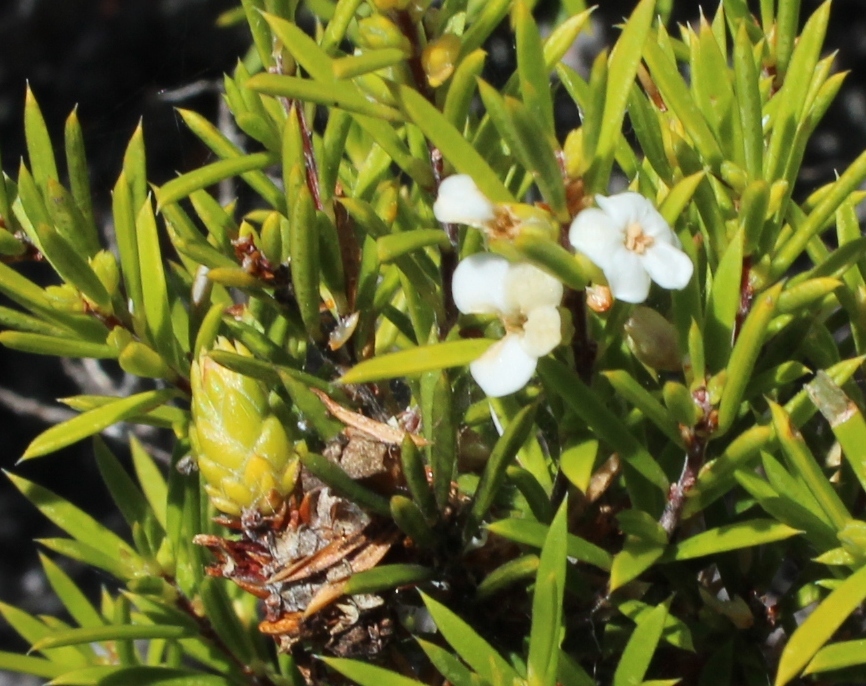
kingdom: Plantae
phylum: Tracheophyta
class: Magnoliopsida
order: Sapindales
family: Rutaceae
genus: Coleonema
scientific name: Coleonema album
